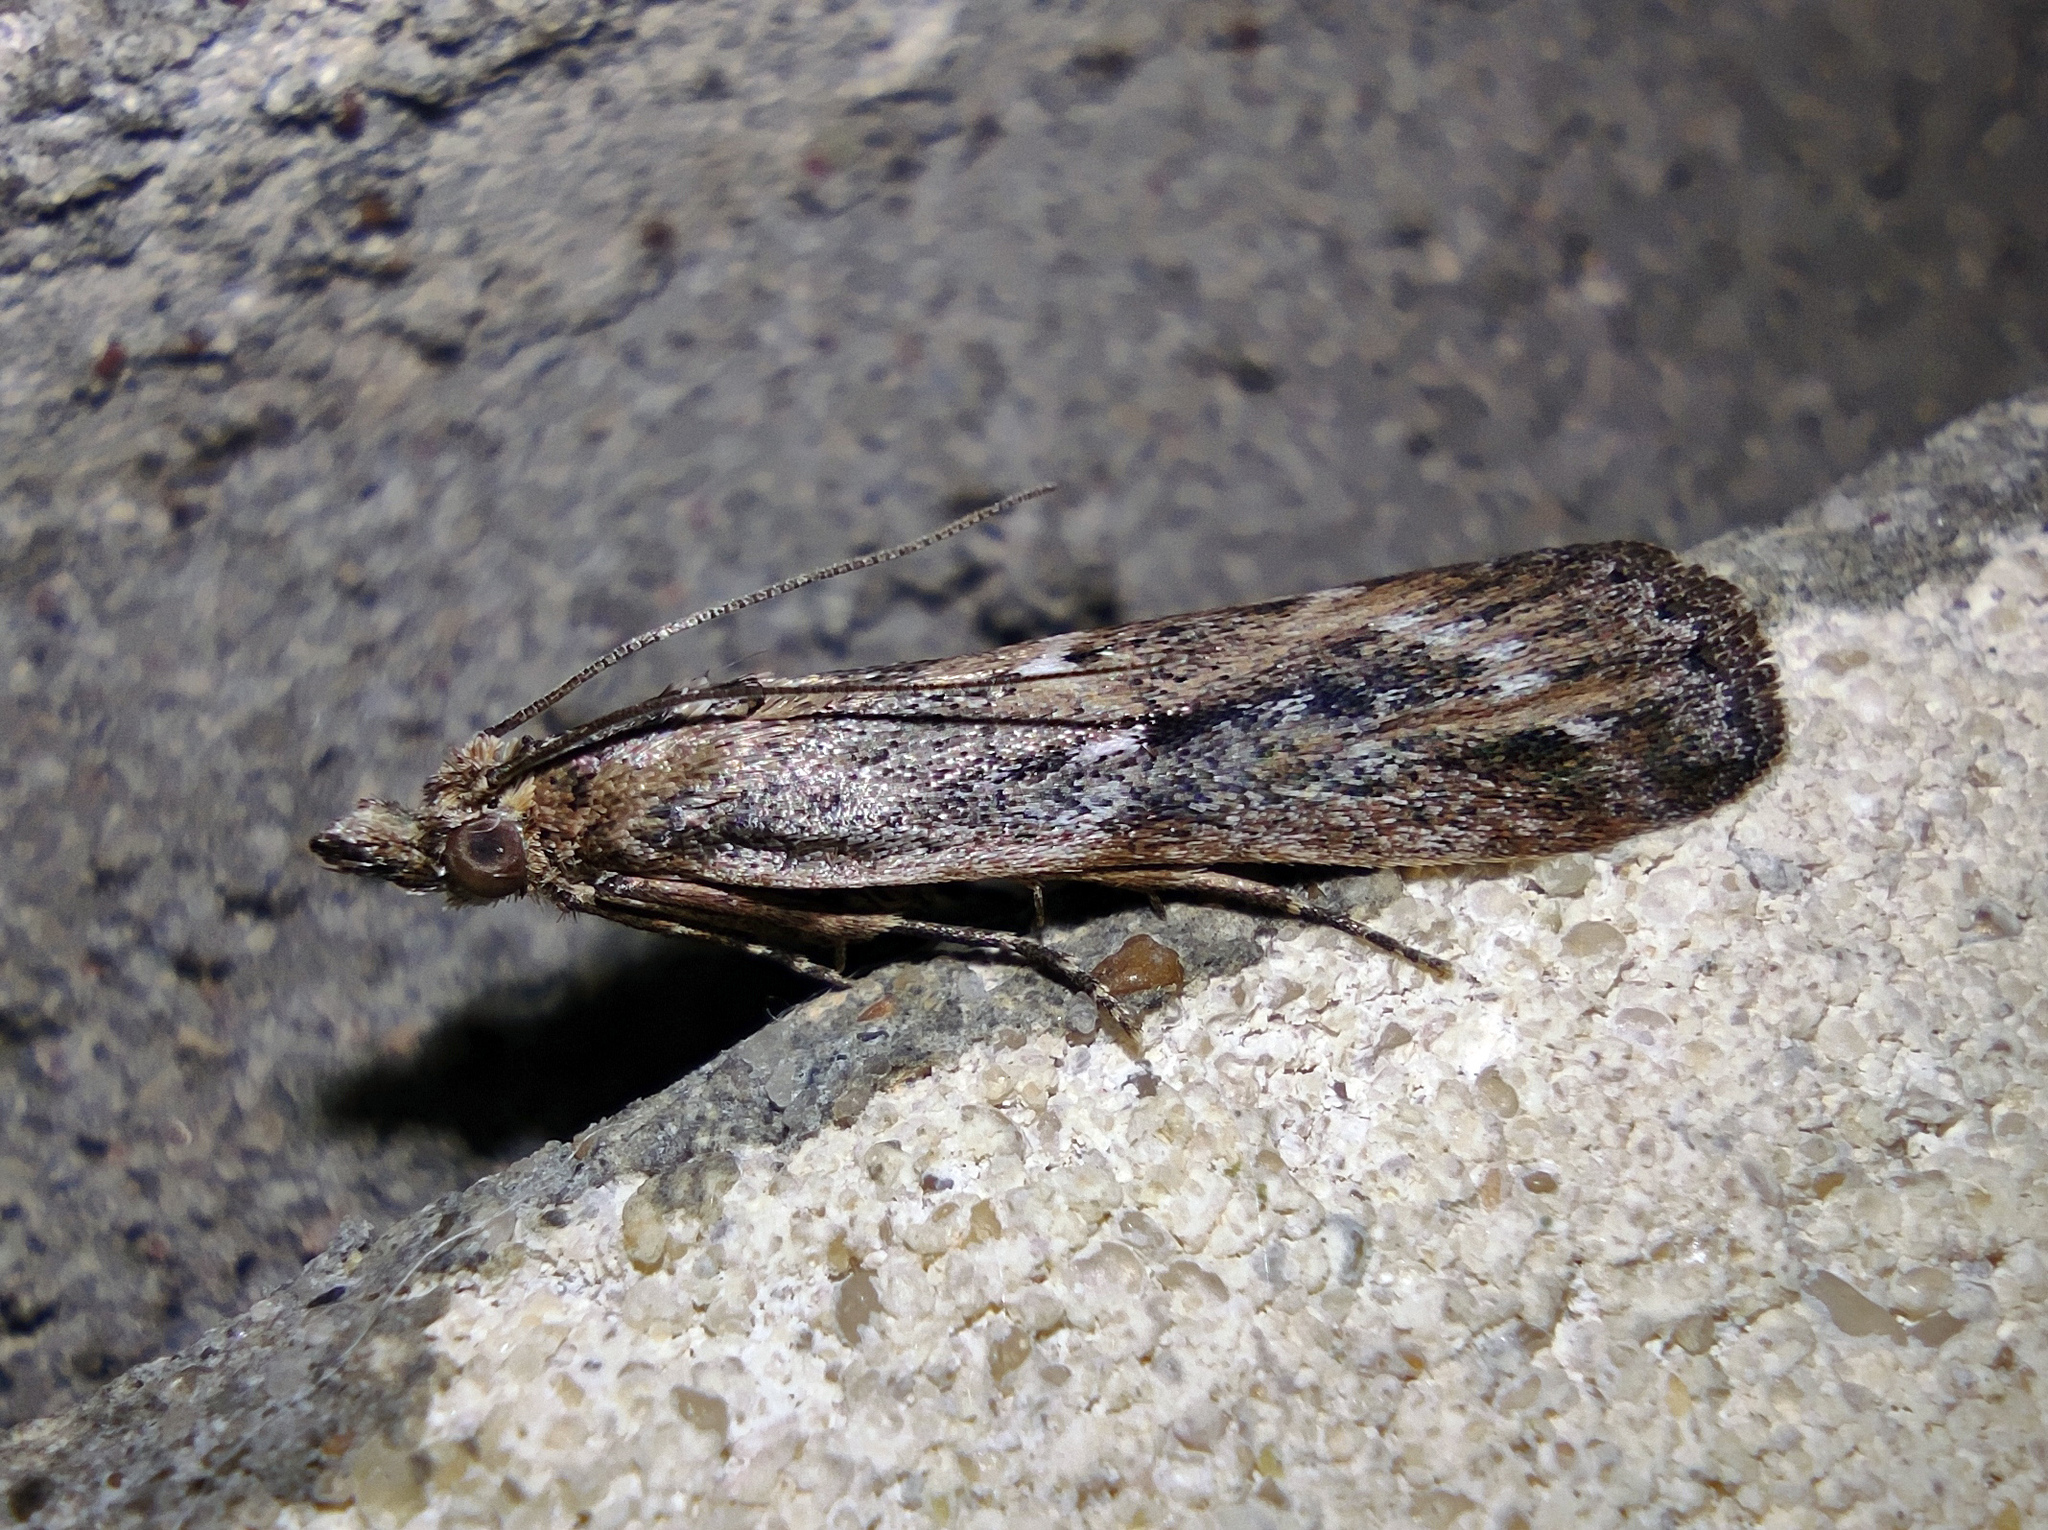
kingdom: Animalia
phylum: Arthropoda
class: Insecta
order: Lepidoptera
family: Pyralidae
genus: Conobathra
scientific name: Conobathra Isauria dilucidella
